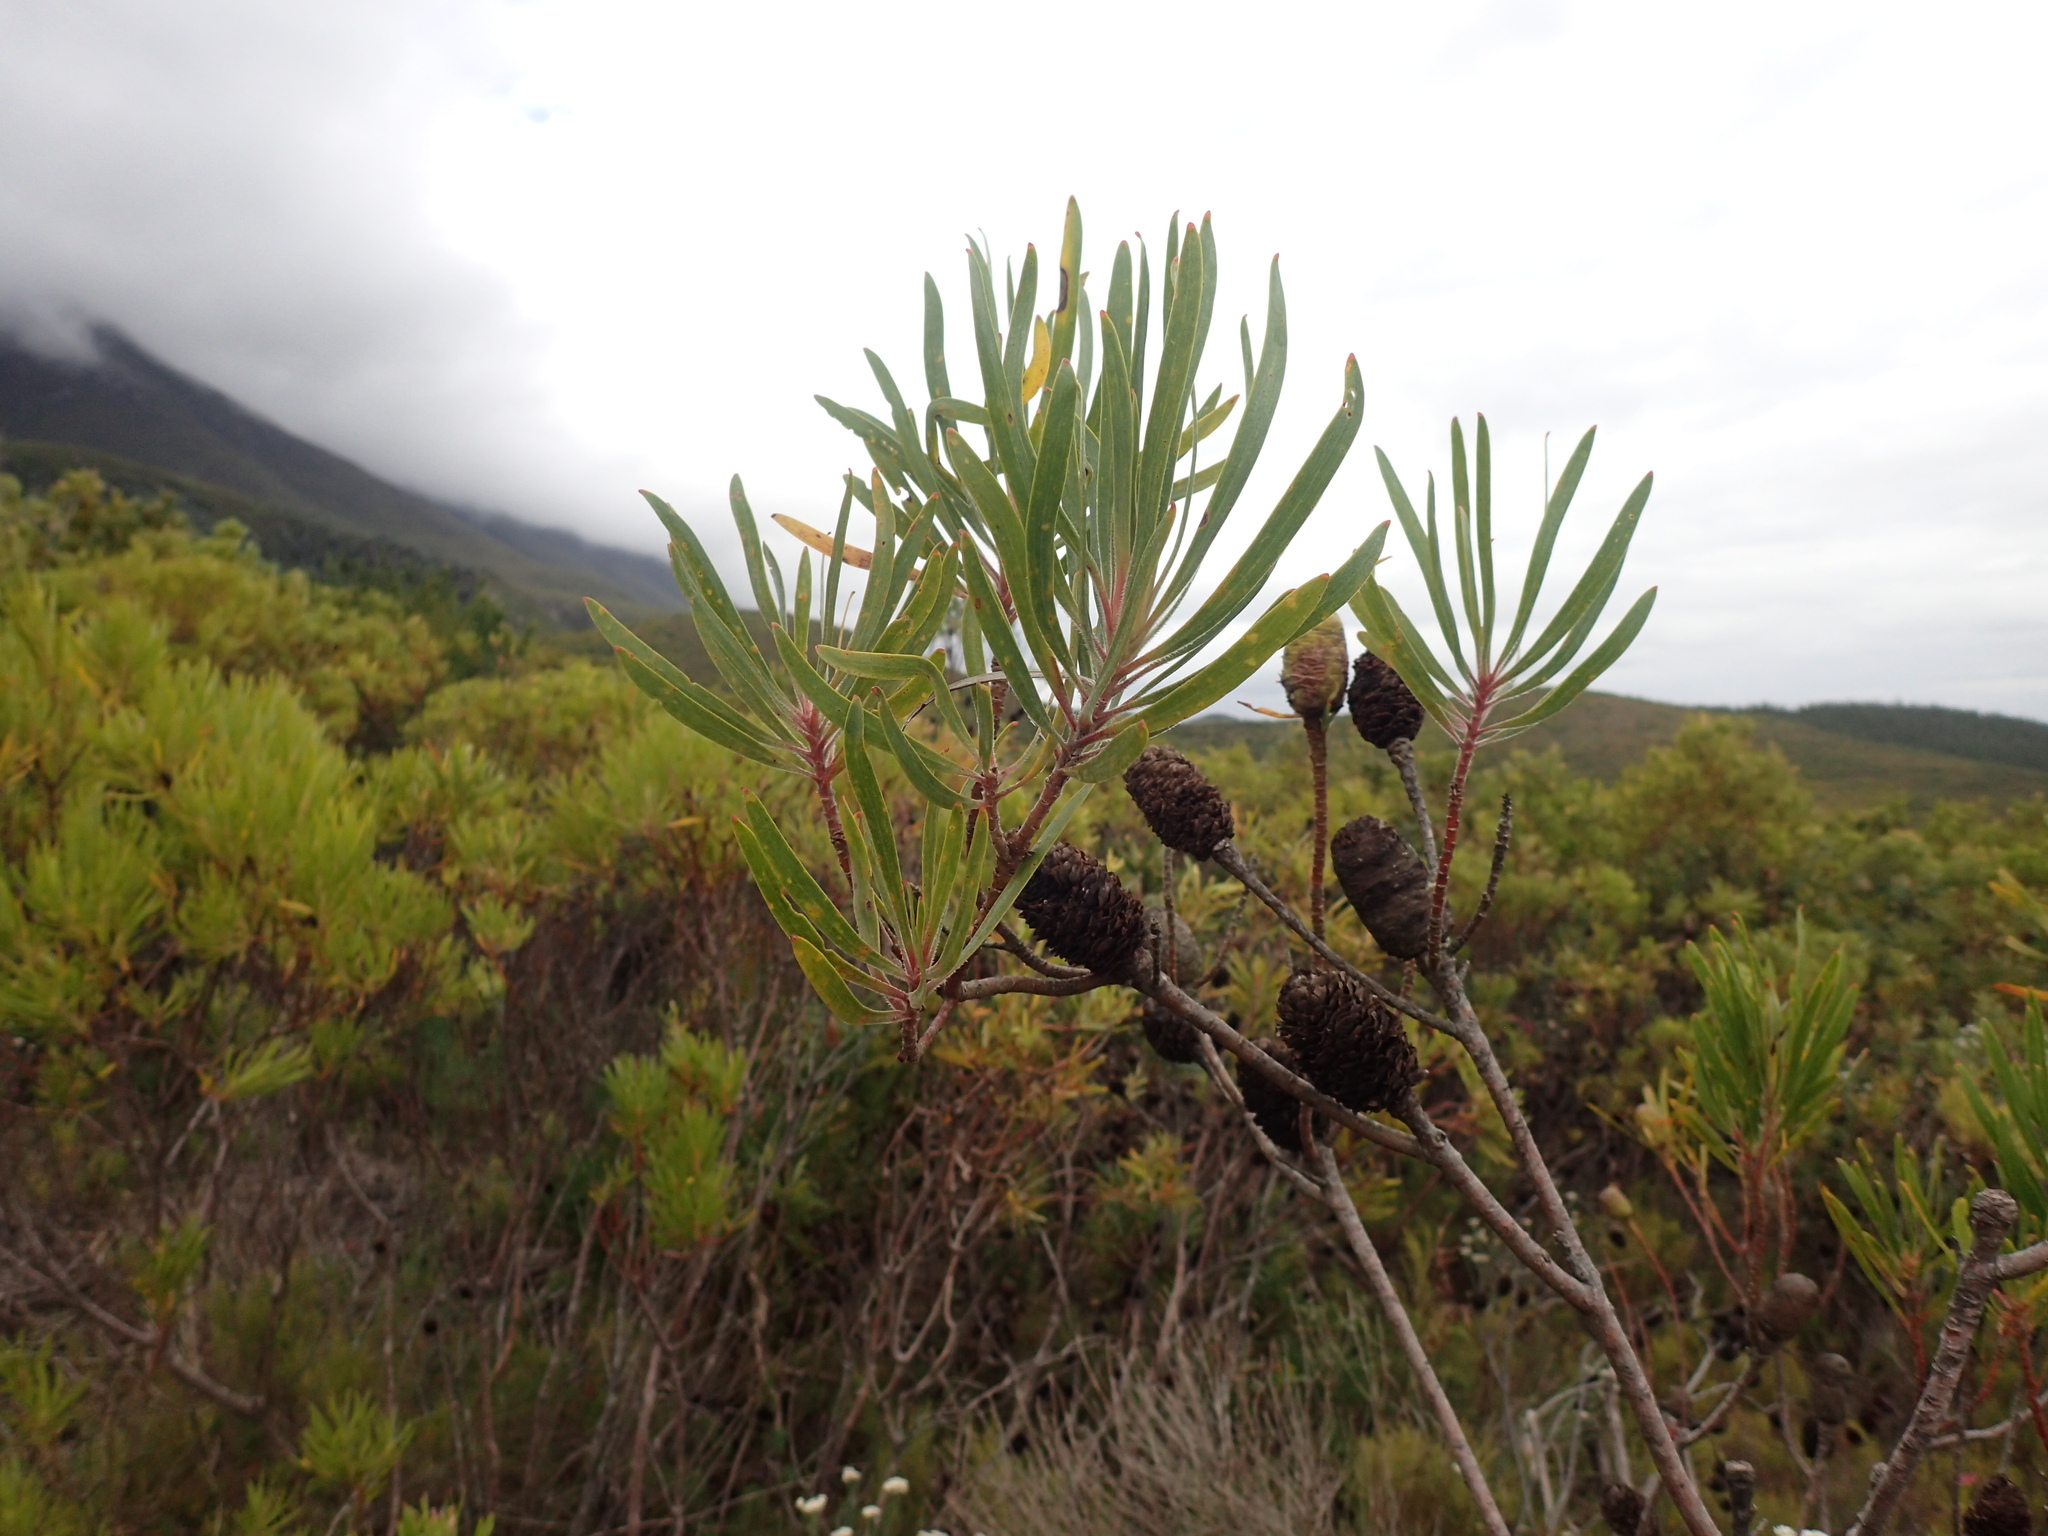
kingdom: Plantae
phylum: Tracheophyta
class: Magnoliopsida
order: Proteales
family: Proteaceae
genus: Leucadendron
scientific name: Leucadendron eucalyptifolium
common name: Gum-leaved conebush
